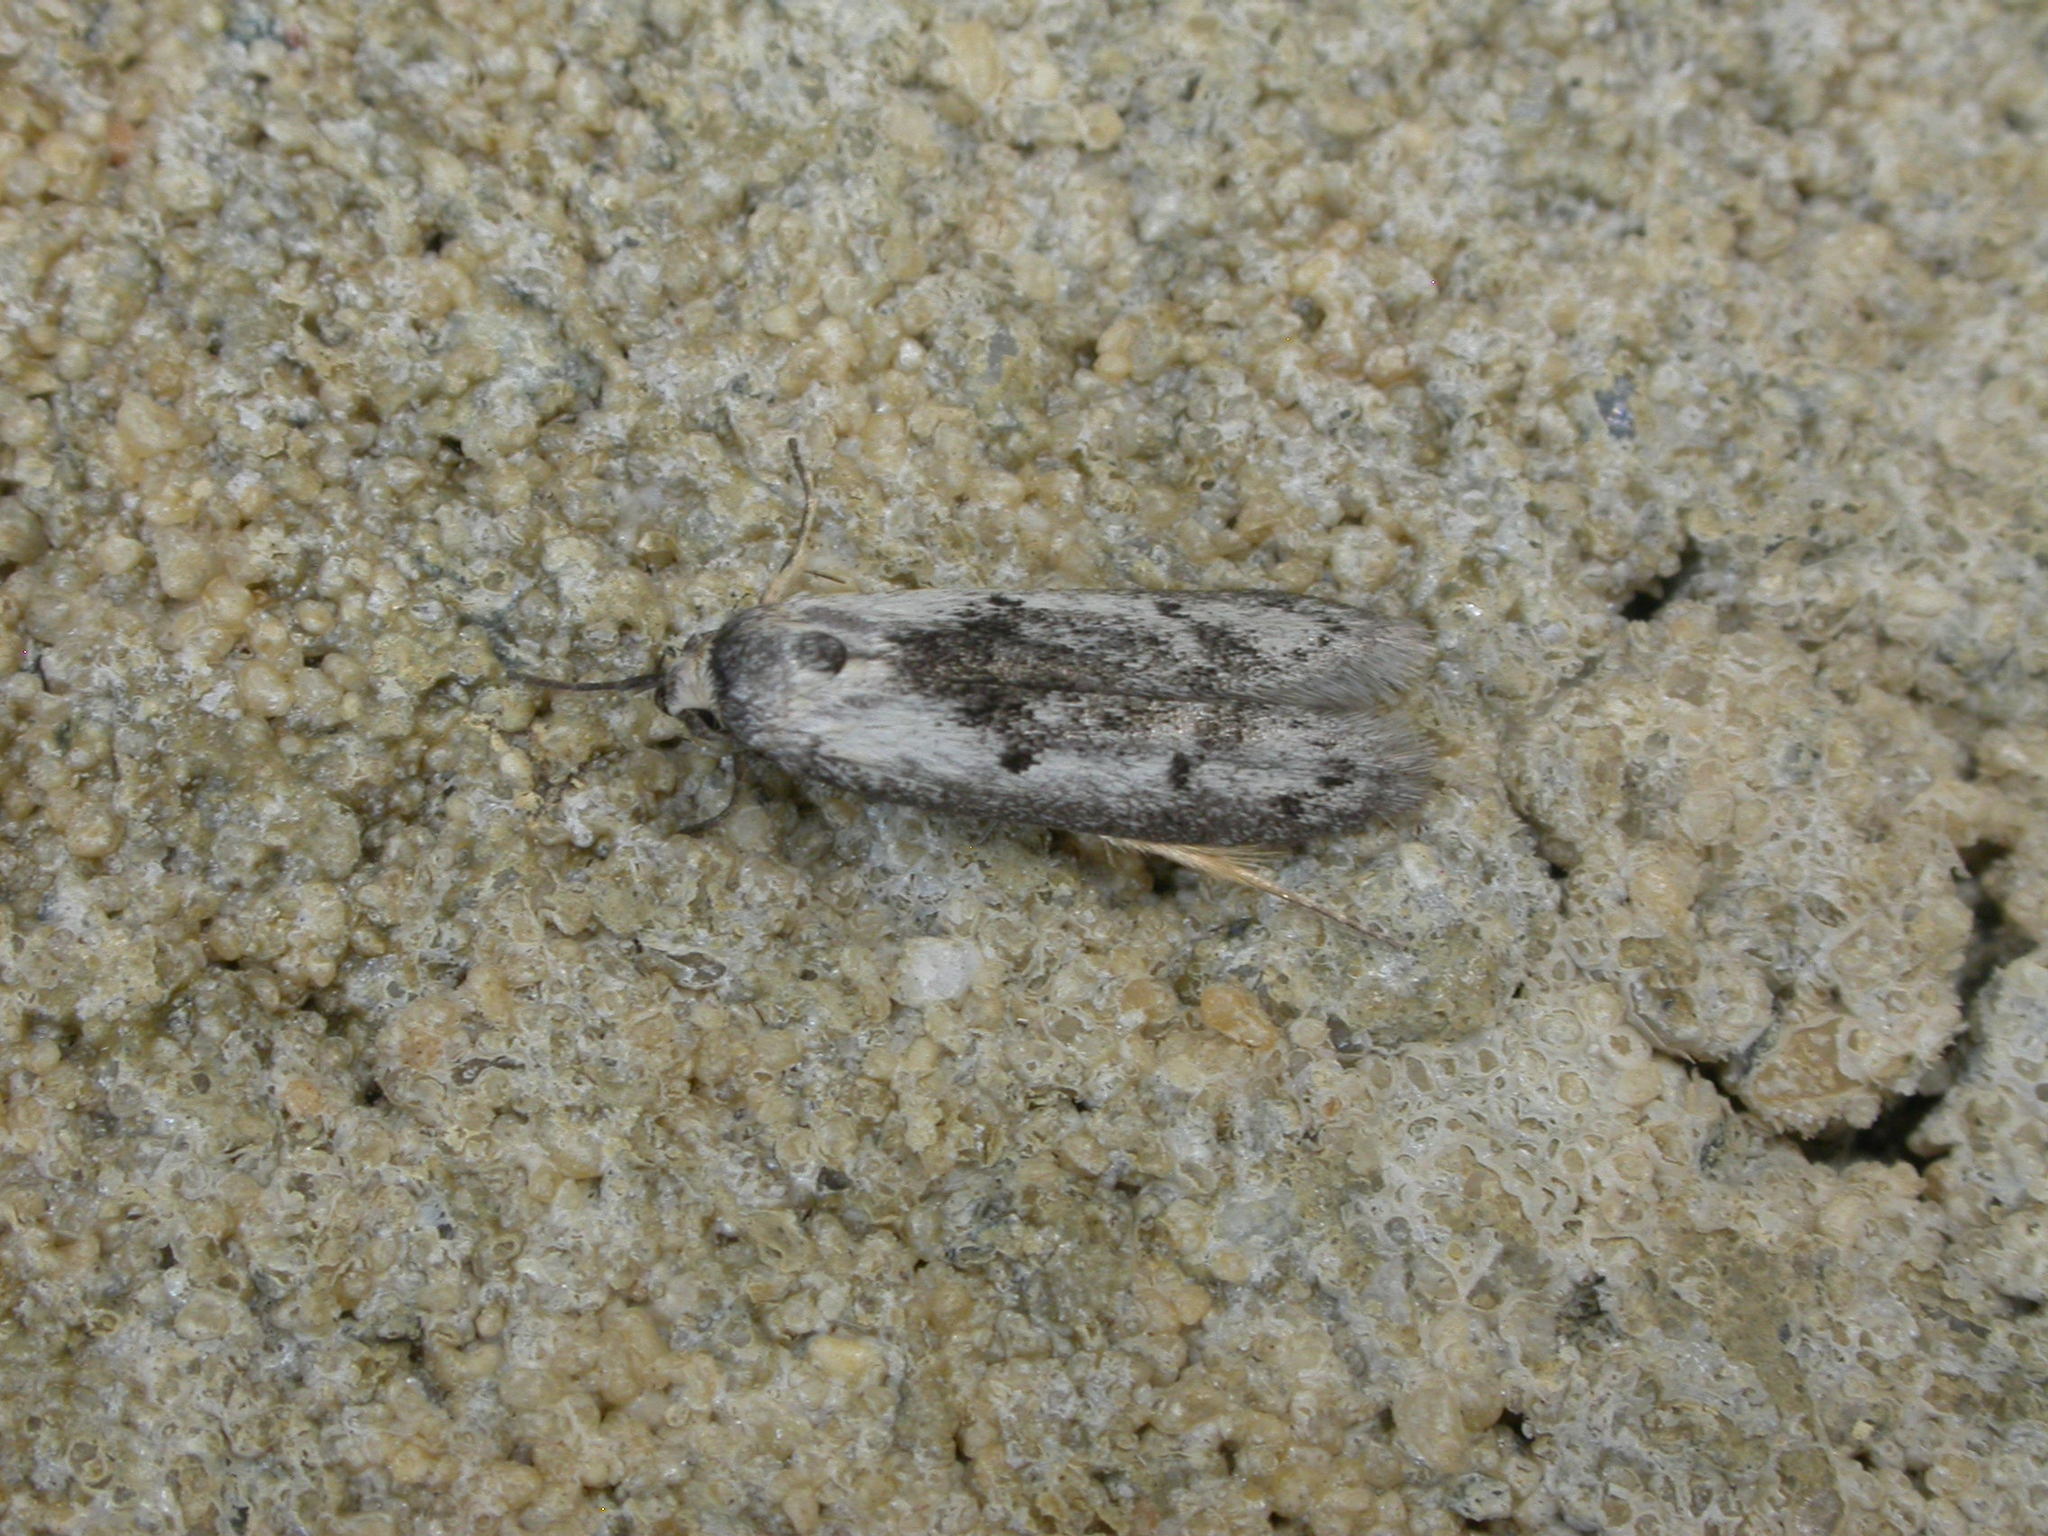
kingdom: Animalia
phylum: Arthropoda
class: Insecta
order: Lepidoptera
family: Oecophoridae
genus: Conobrosis
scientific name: Conobrosis acervata
